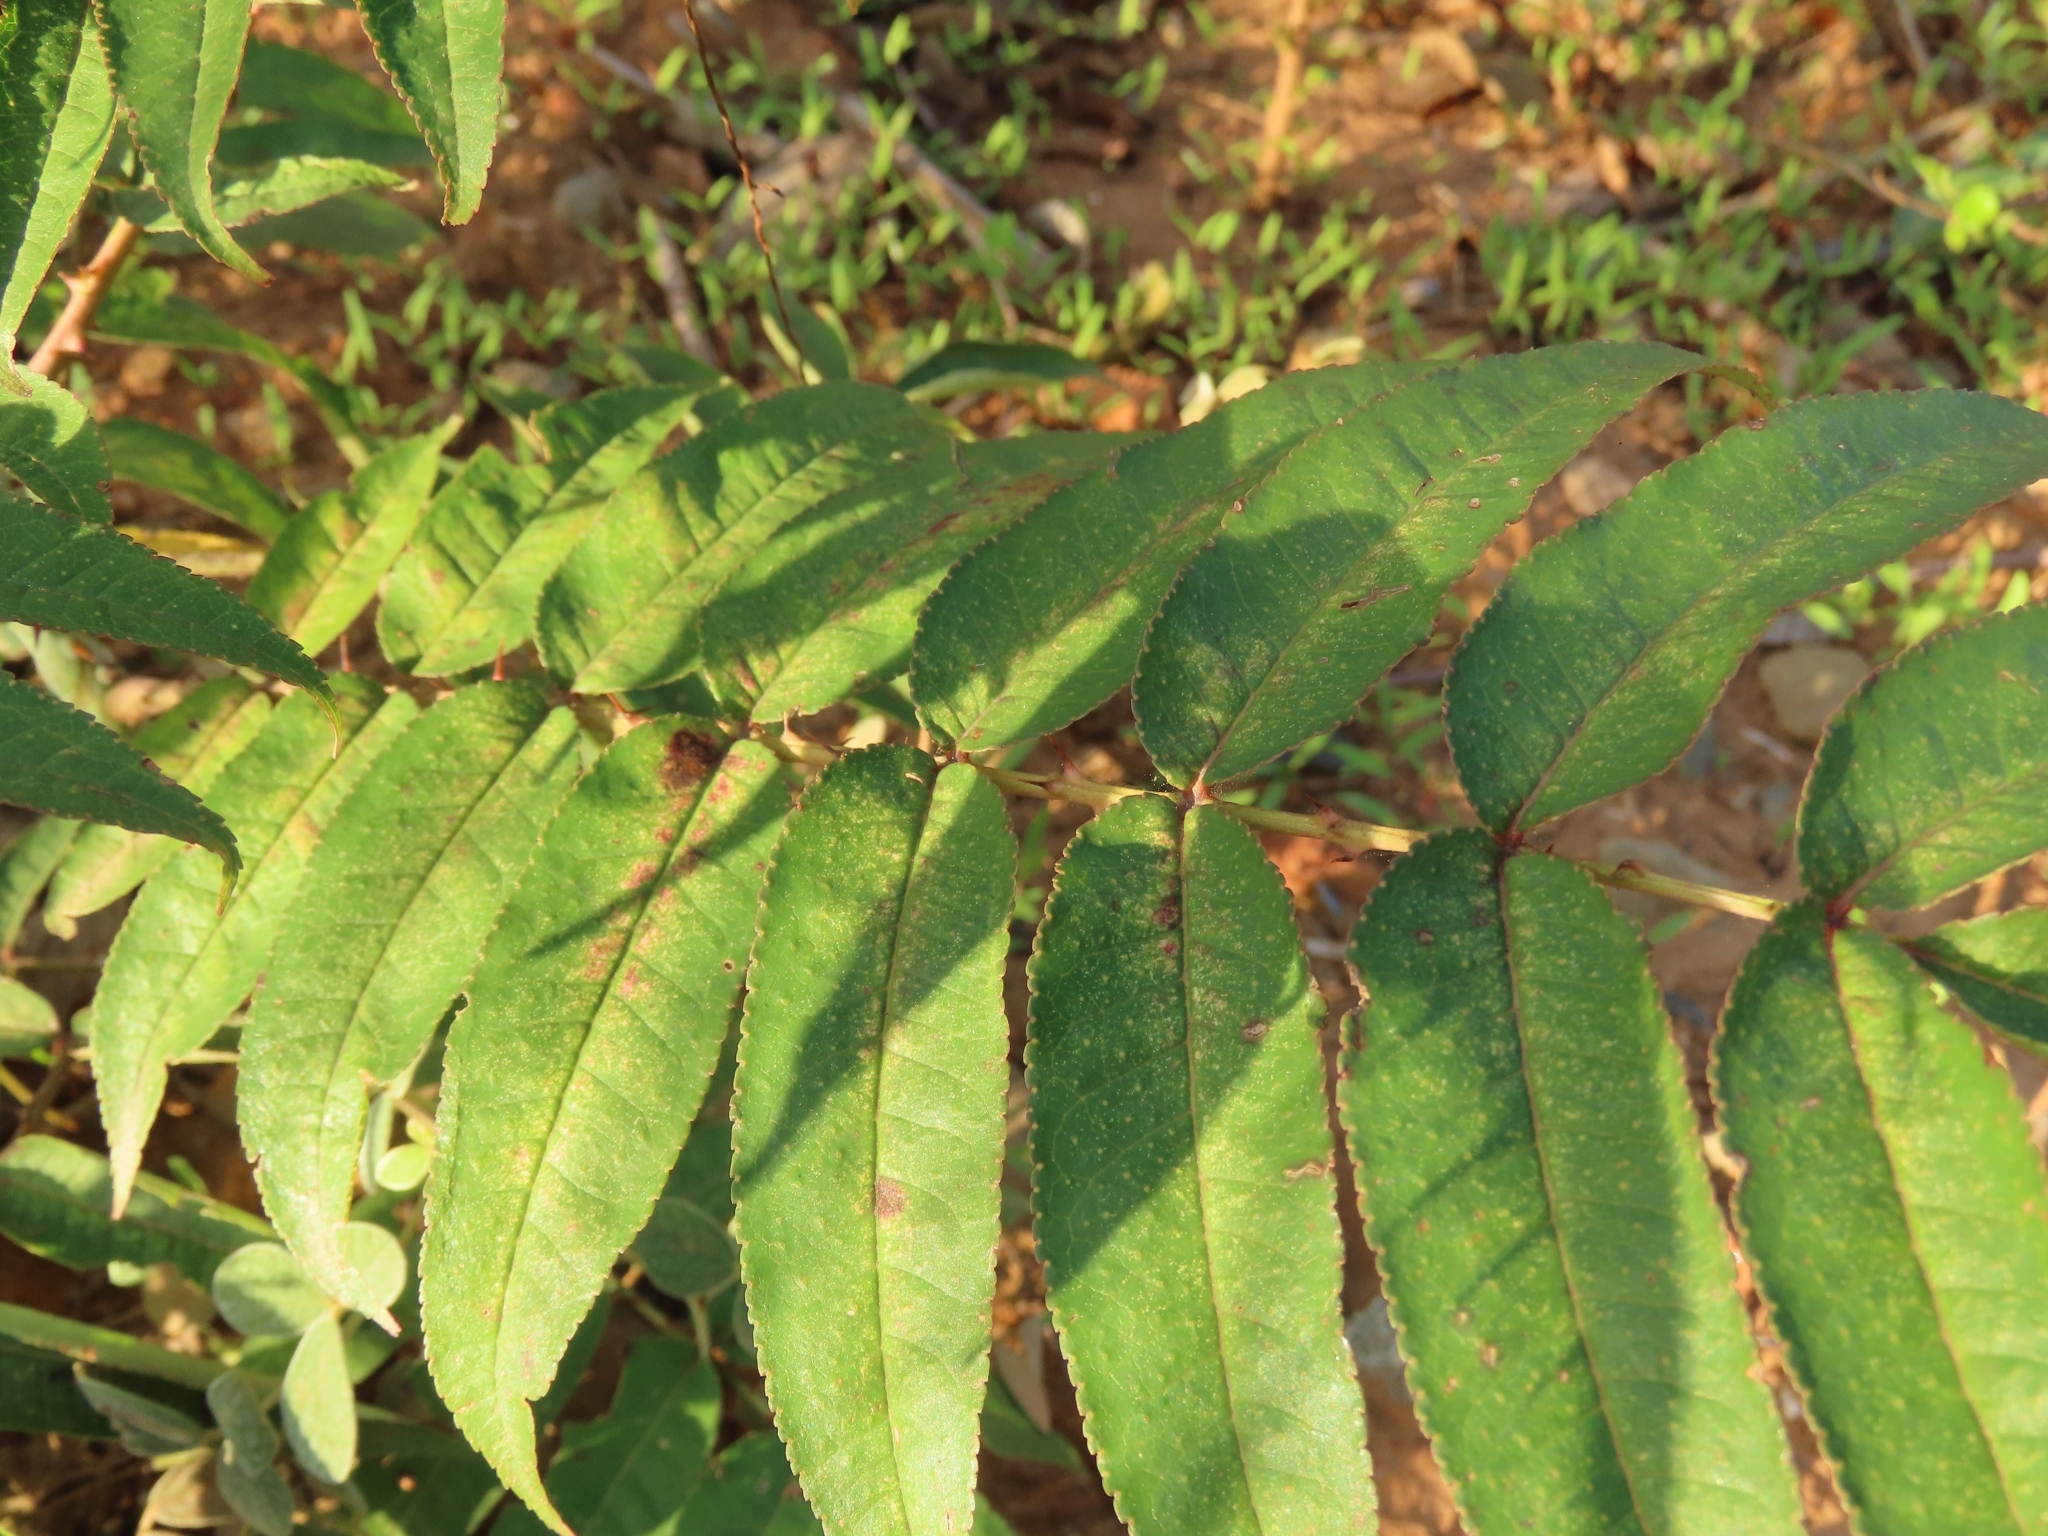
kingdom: Plantae
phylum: Tracheophyta
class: Magnoliopsida
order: Sapindales
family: Rutaceae
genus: Zanthoxylum
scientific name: Zanthoxylum ailanthoides
